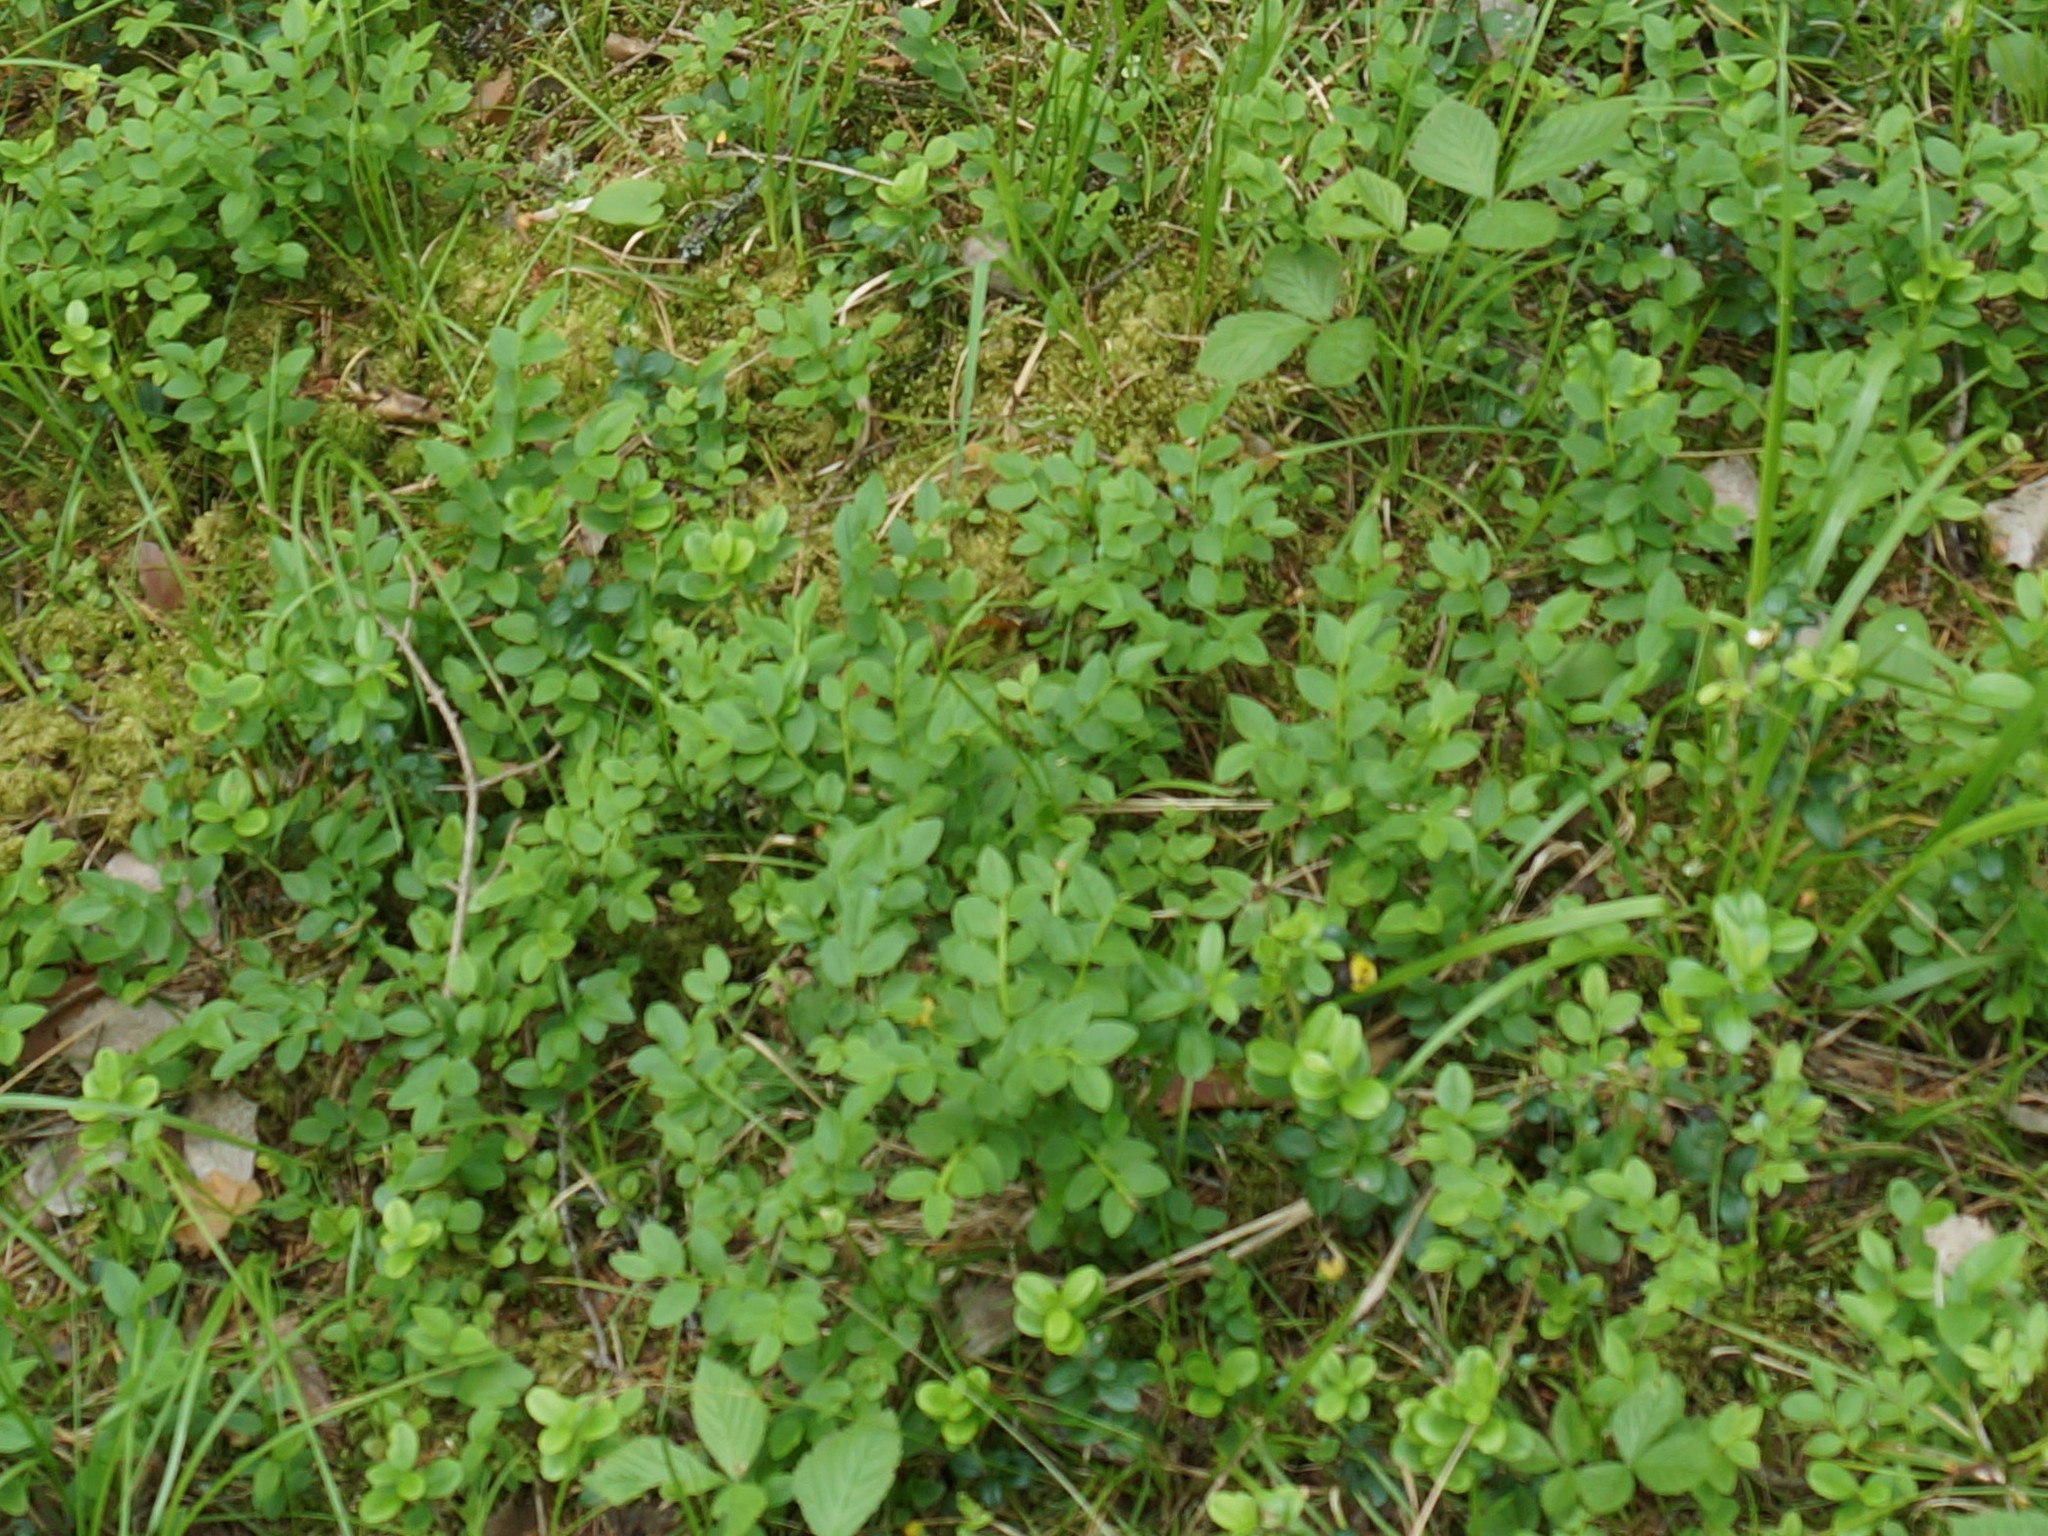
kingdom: Plantae
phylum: Tracheophyta
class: Magnoliopsida
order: Ericales
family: Ericaceae
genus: Vaccinium
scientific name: Vaccinium myrtillus
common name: Bilberry
